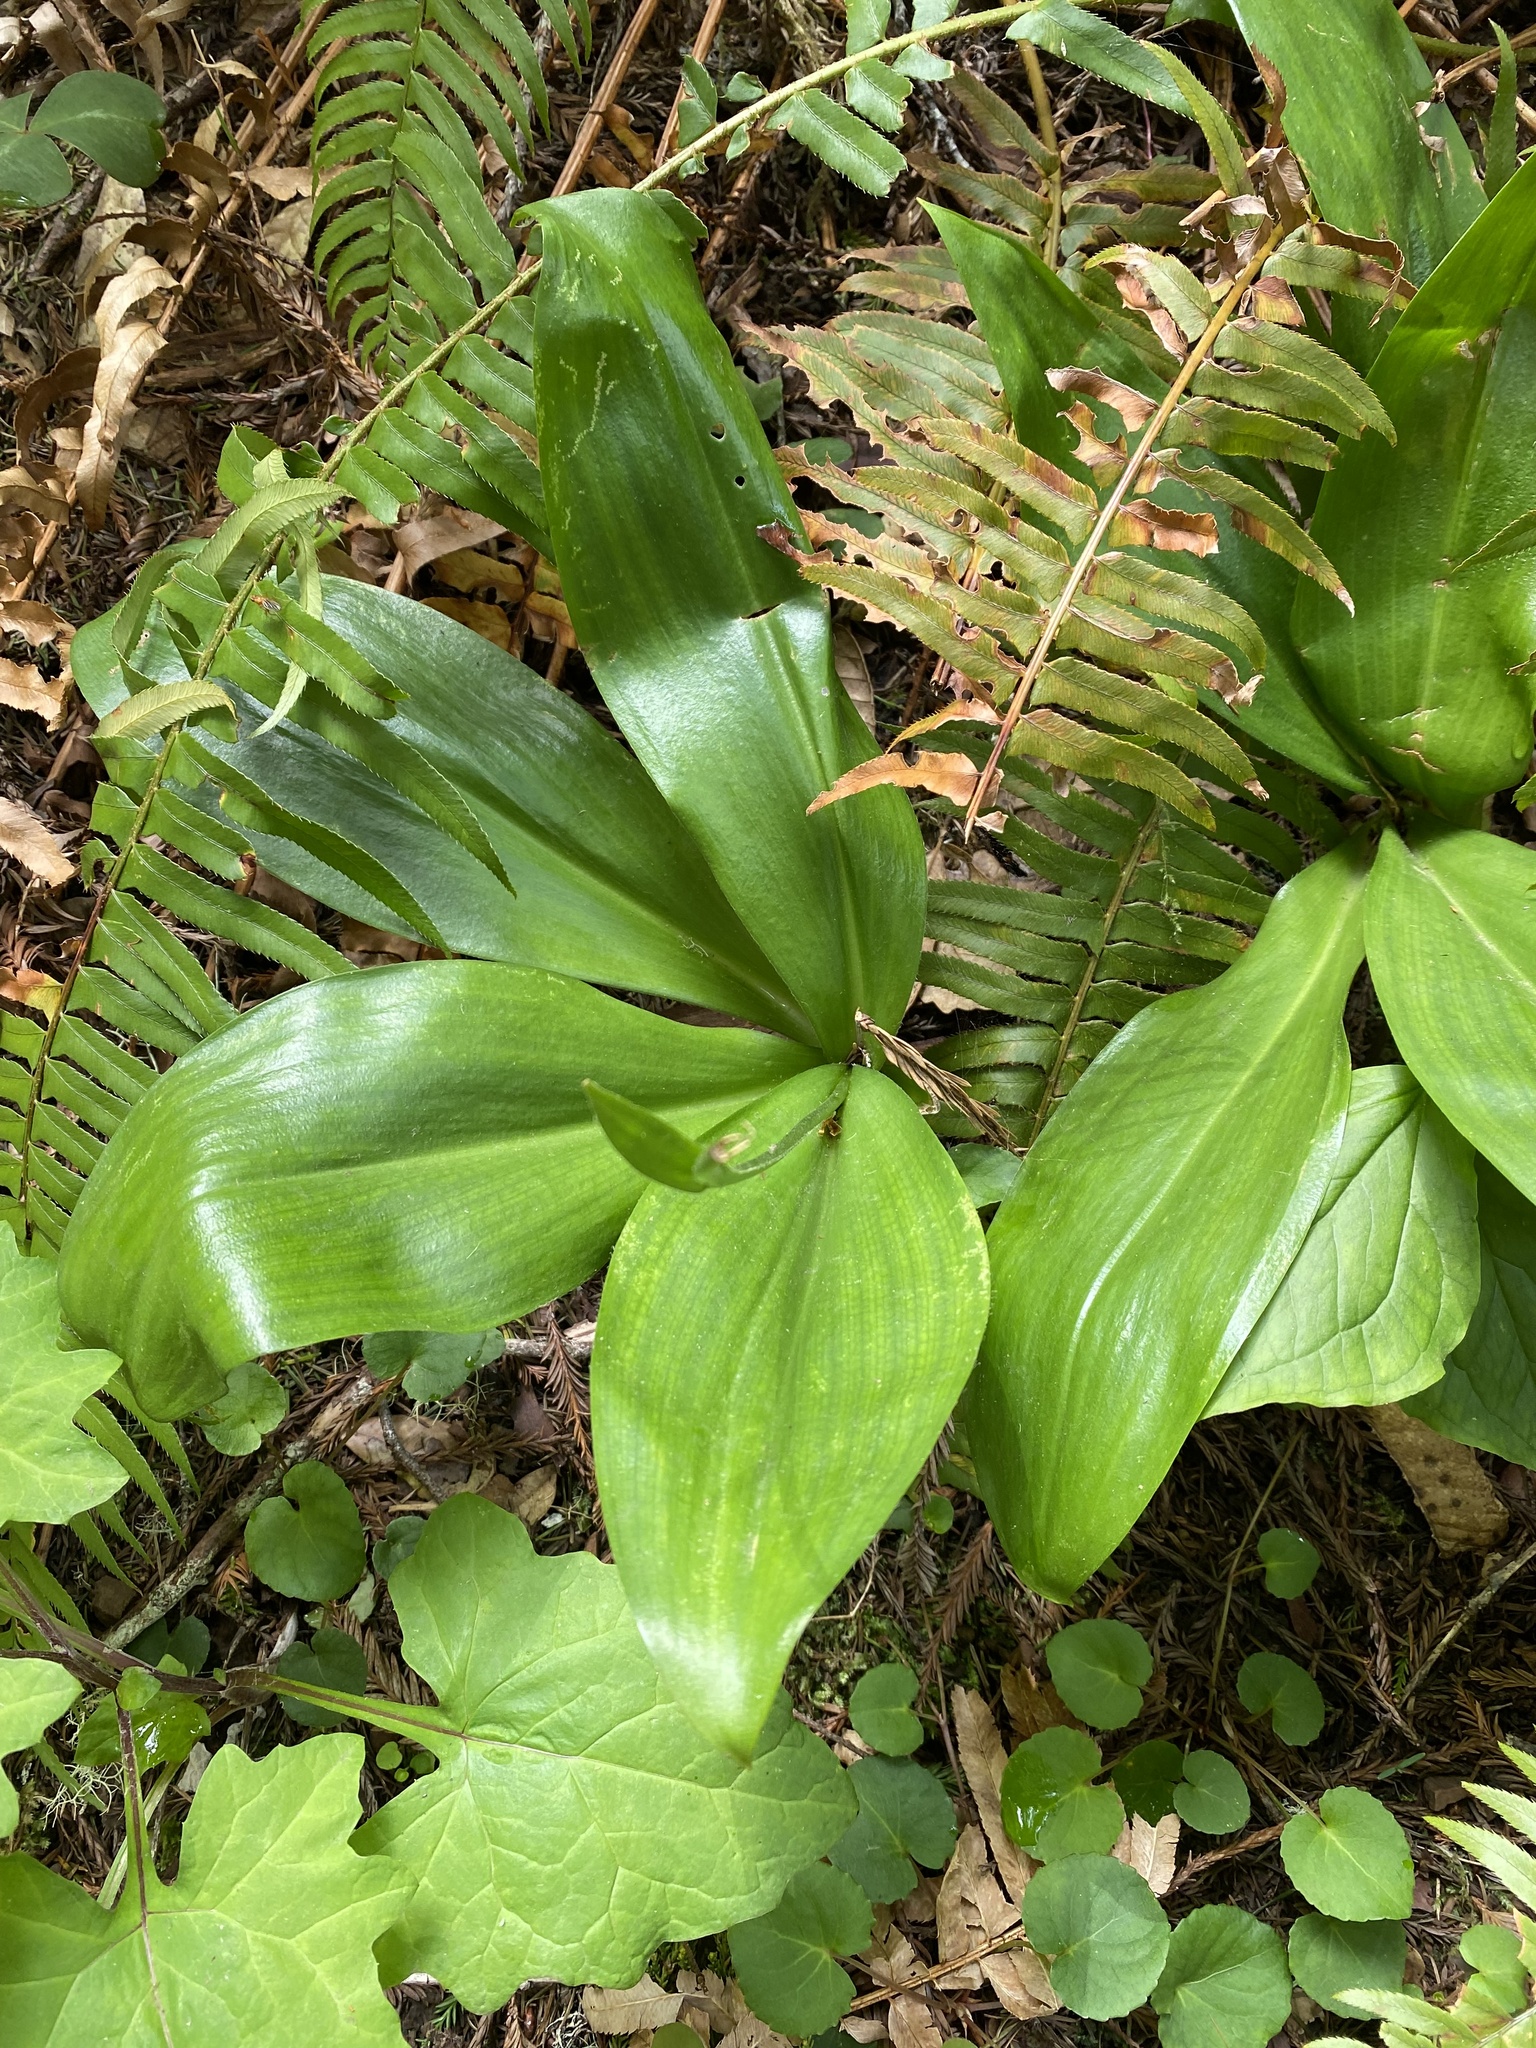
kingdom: Plantae
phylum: Tracheophyta
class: Liliopsida
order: Liliales
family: Liliaceae
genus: Clintonia
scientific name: Clintonia andrewsiana
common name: Red clintonia
